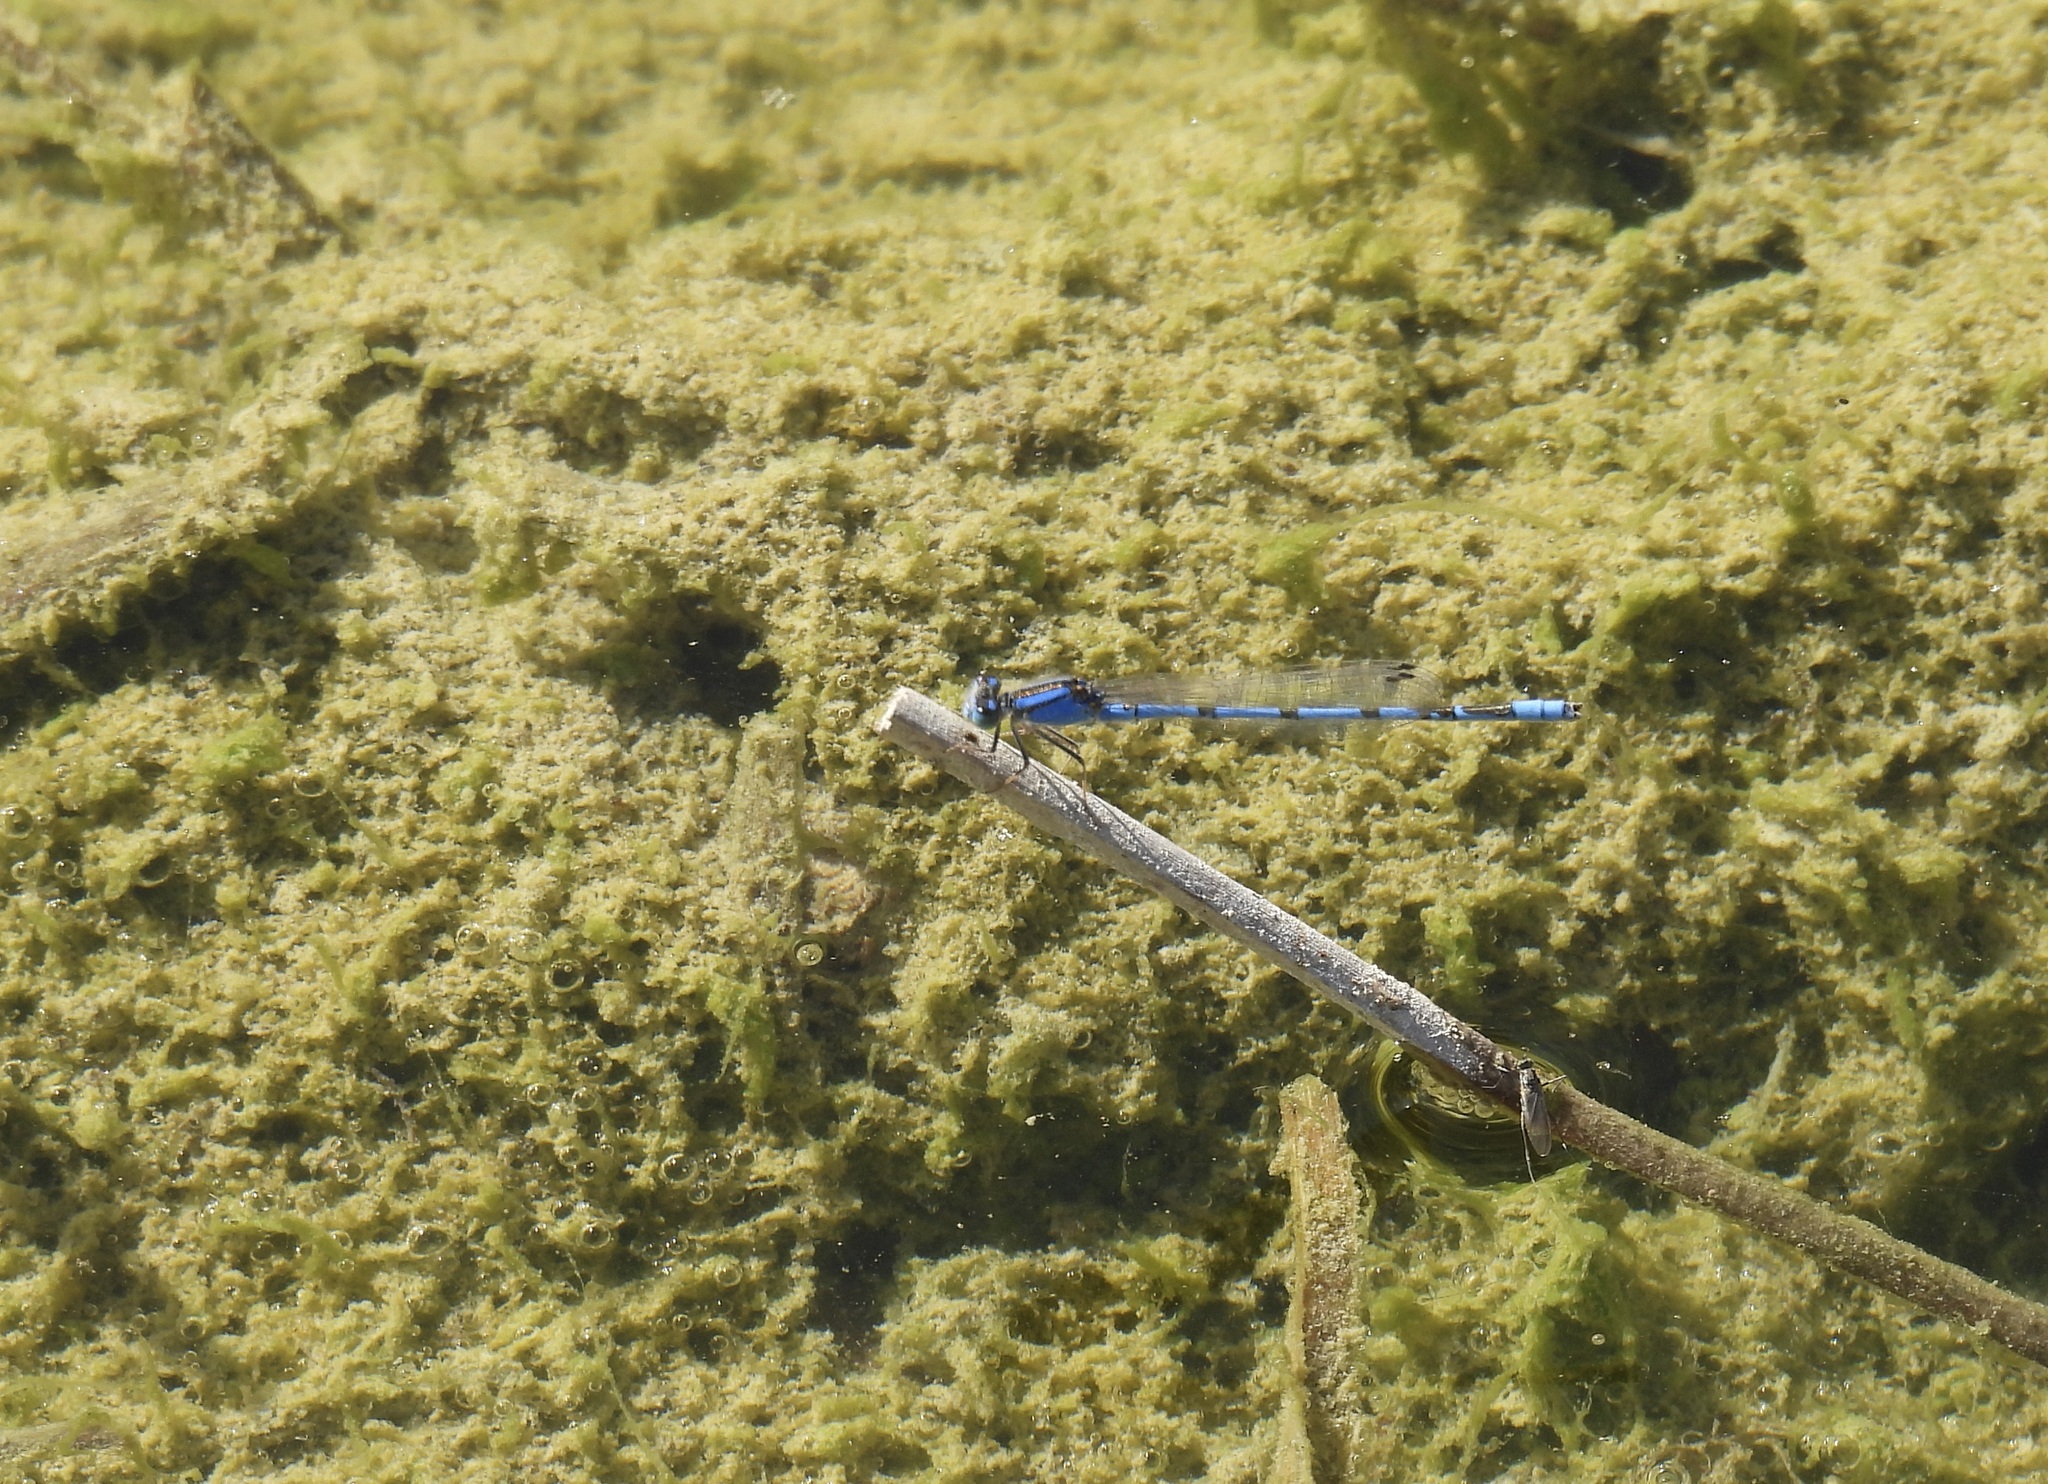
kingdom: Animalia
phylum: Arthropoda
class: Insecta
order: Odonata
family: Coenagrionidae
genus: Enallagma
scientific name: Enallagma civile
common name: Damselfly
